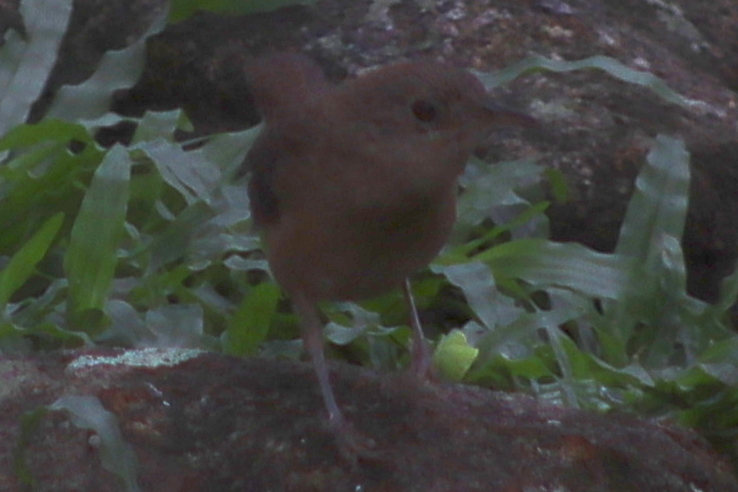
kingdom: Animalia
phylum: Chordata
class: Aves
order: Passeriformes
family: Troglodytidae
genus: Troglodytes
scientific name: Troglodytes aedon
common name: House wren
